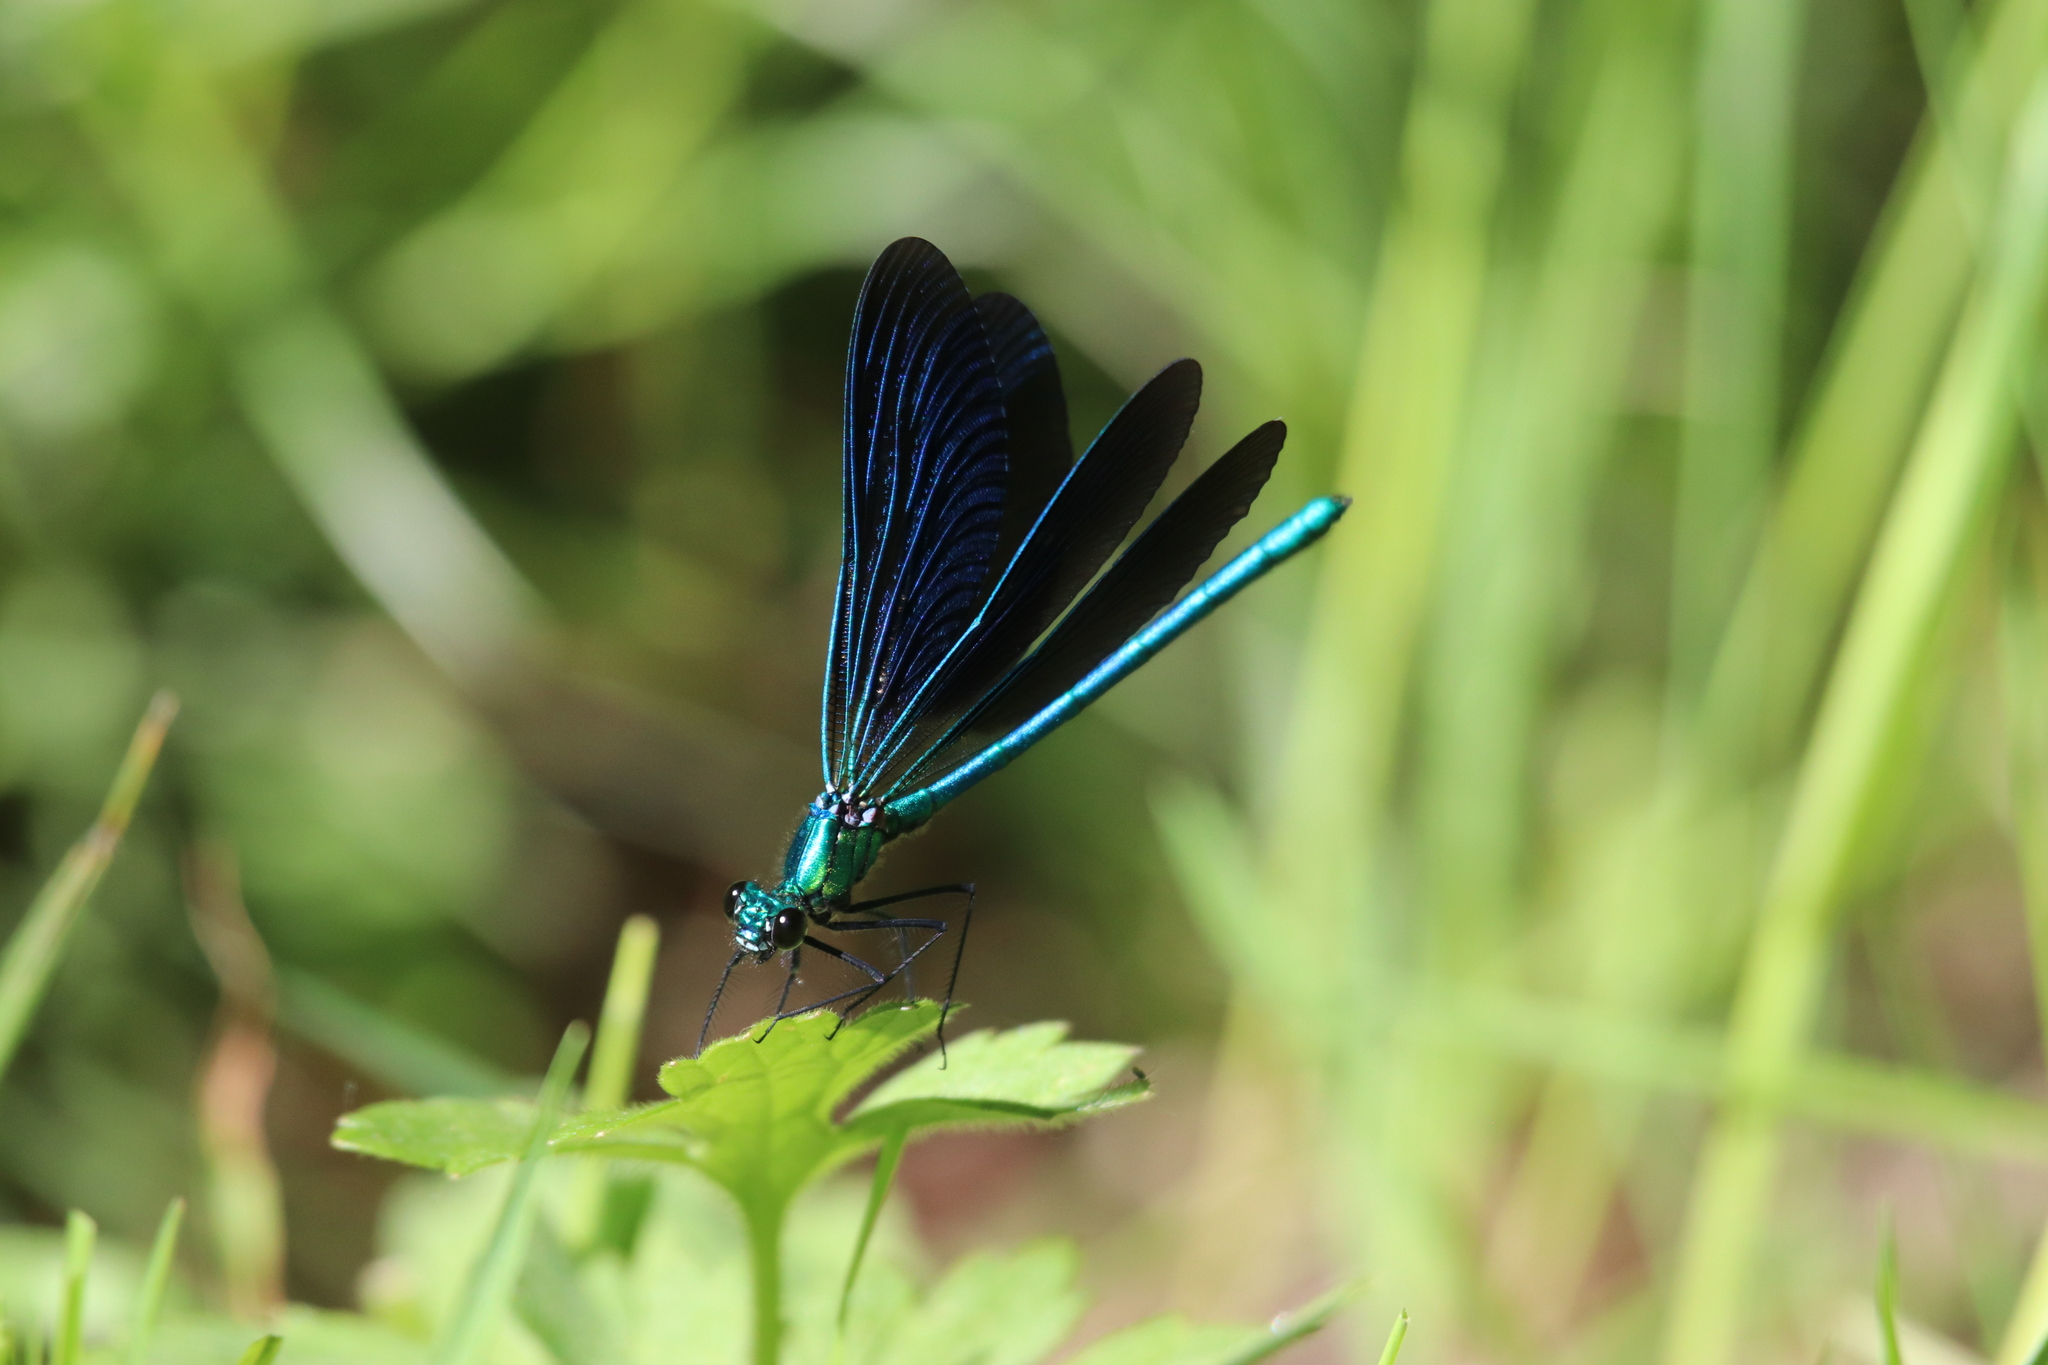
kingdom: Animalia
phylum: Arthropoda
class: Insecta
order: Odonata
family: Calopterygidae
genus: Calopteryx
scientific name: Calopteryx virgo
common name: Beautiful demoiselle
